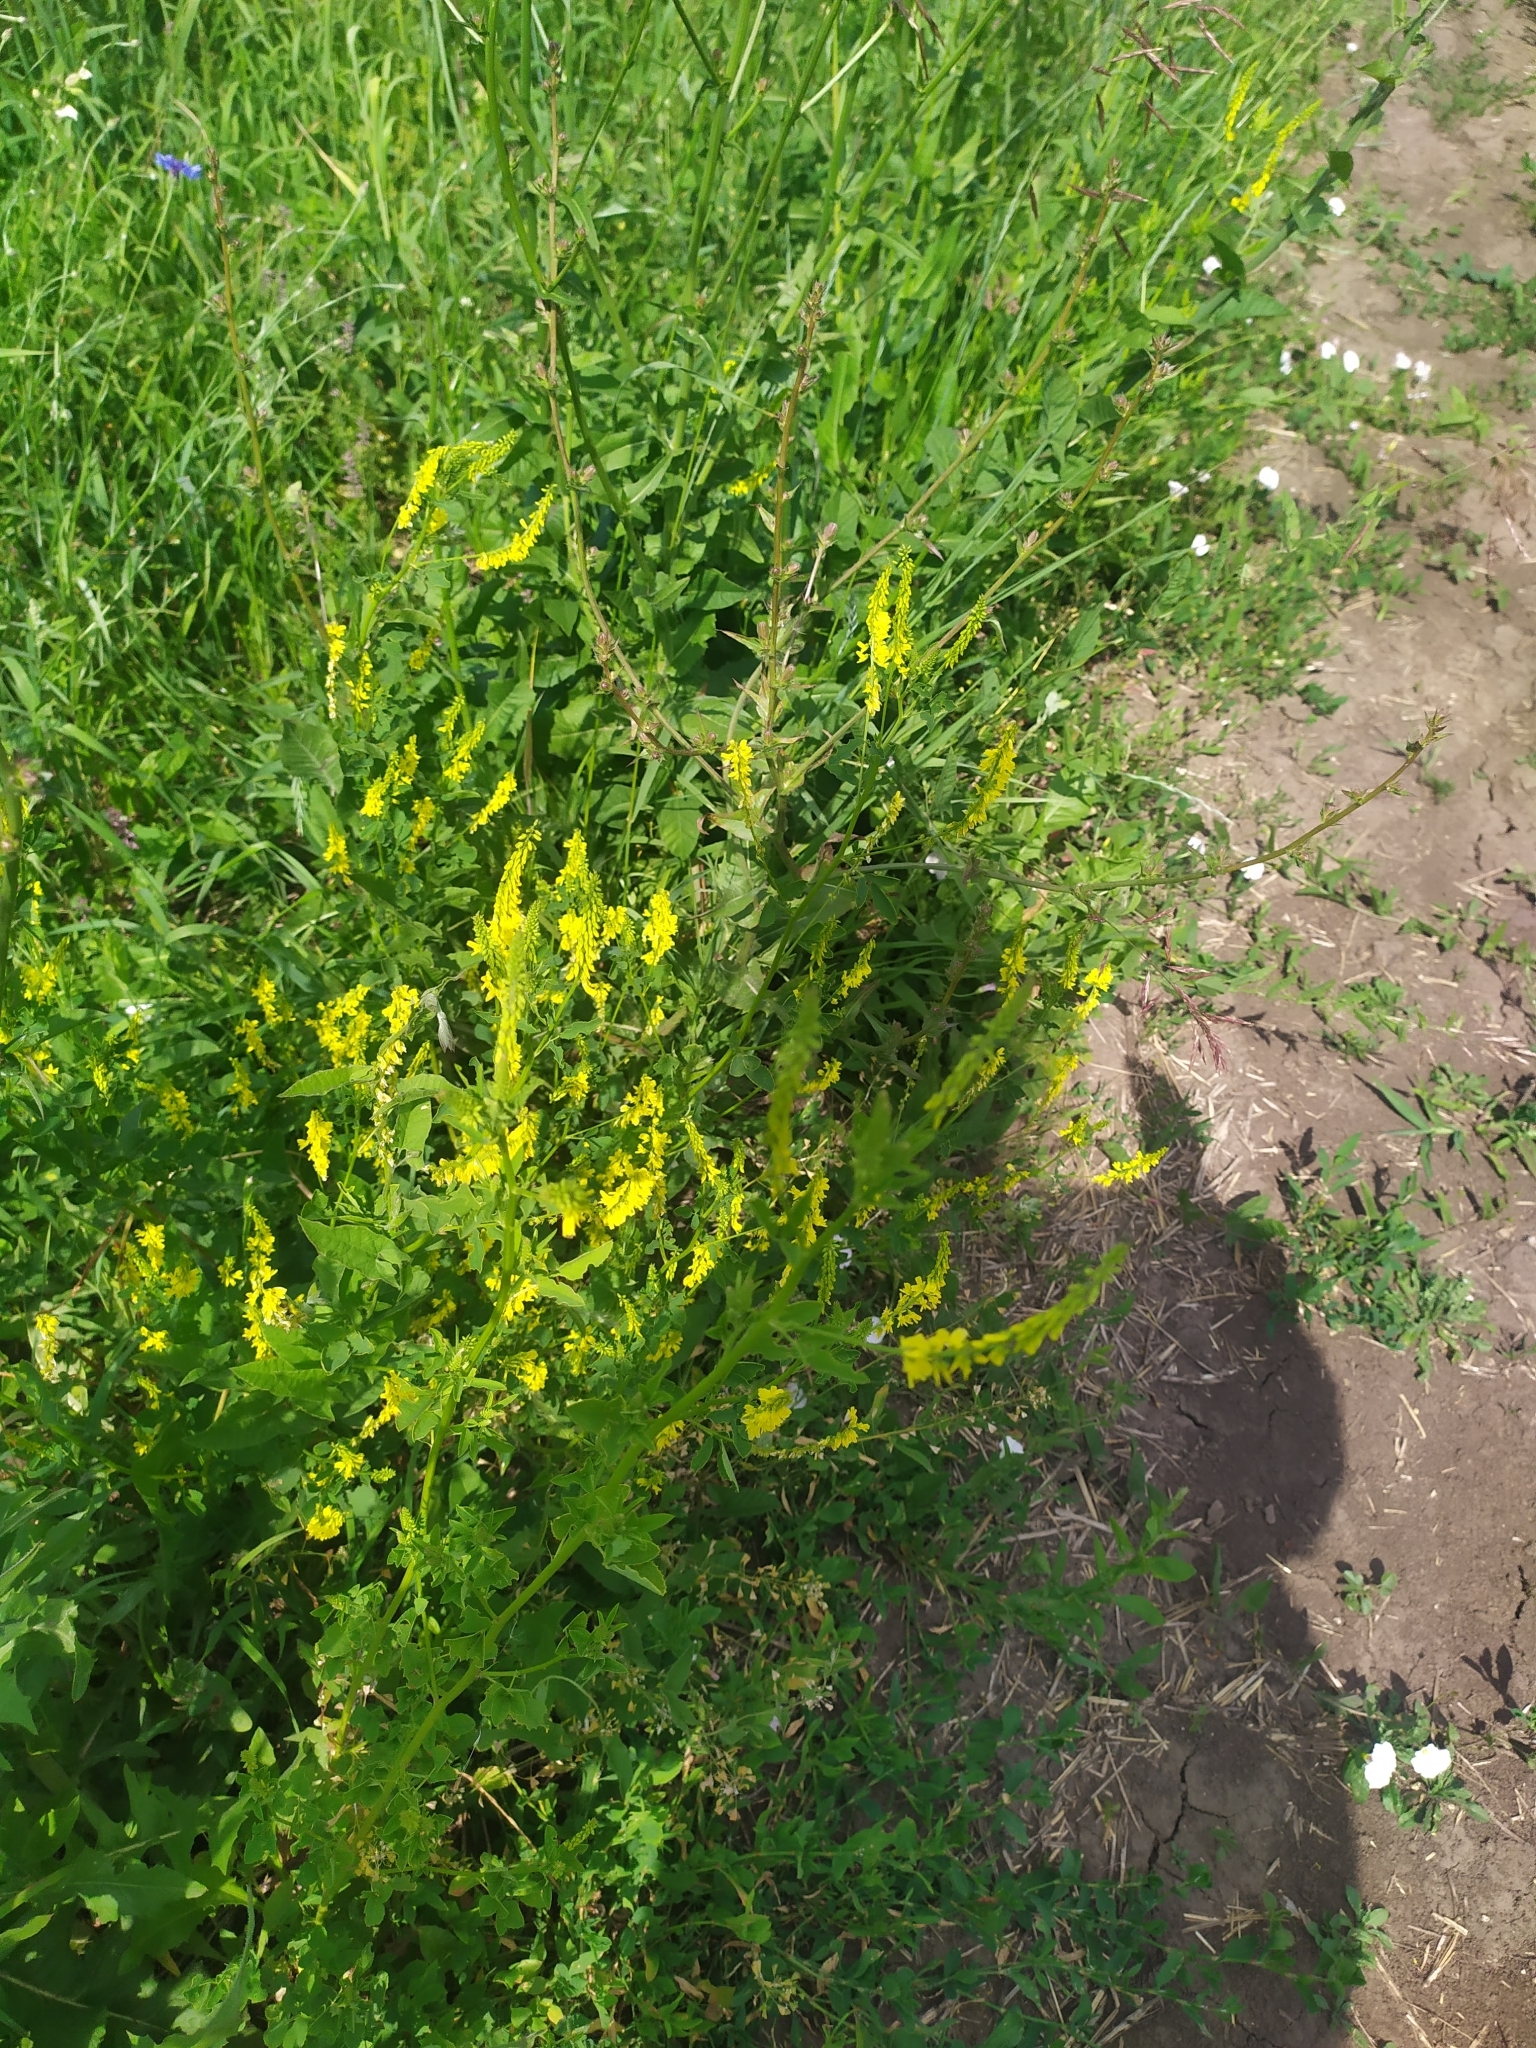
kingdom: Plantae
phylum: Tracheophyta
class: Magnoliopsida
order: Fabales
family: Fabaceae
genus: Melilotus
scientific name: Melilotus officinalis
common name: Sweetclover
